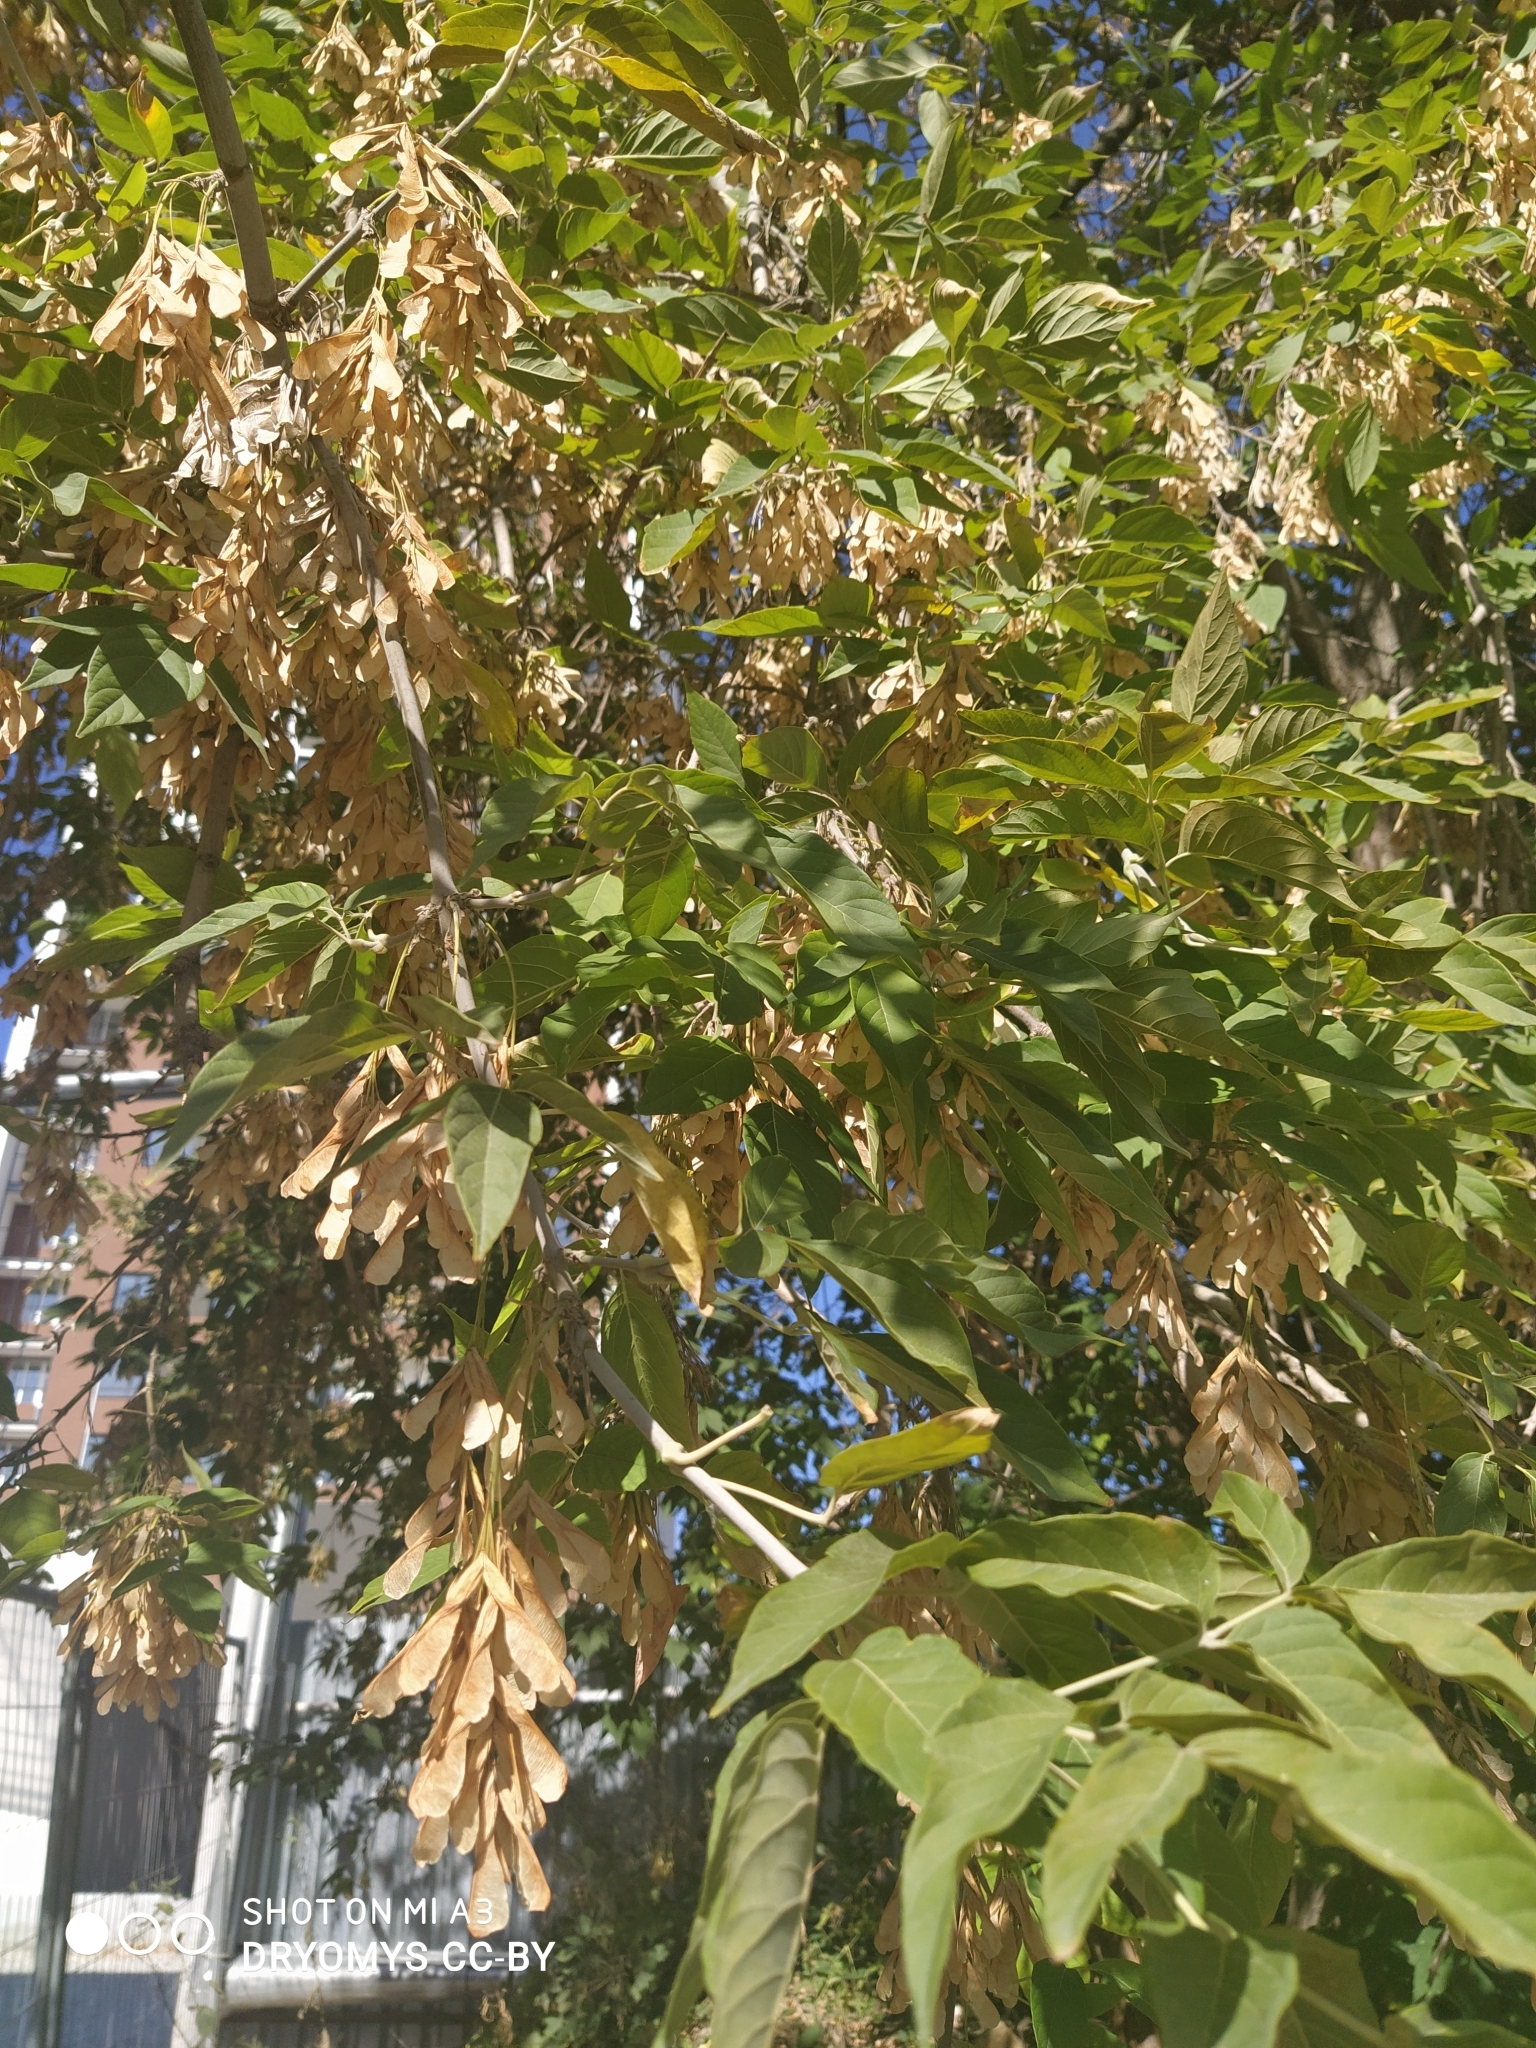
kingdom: Plantae
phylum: Tracheophyta
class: Magnoliopsida
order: Sapindales
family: Sapindaceae
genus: Acer
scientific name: Acer negundo
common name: Ashleaf maple
